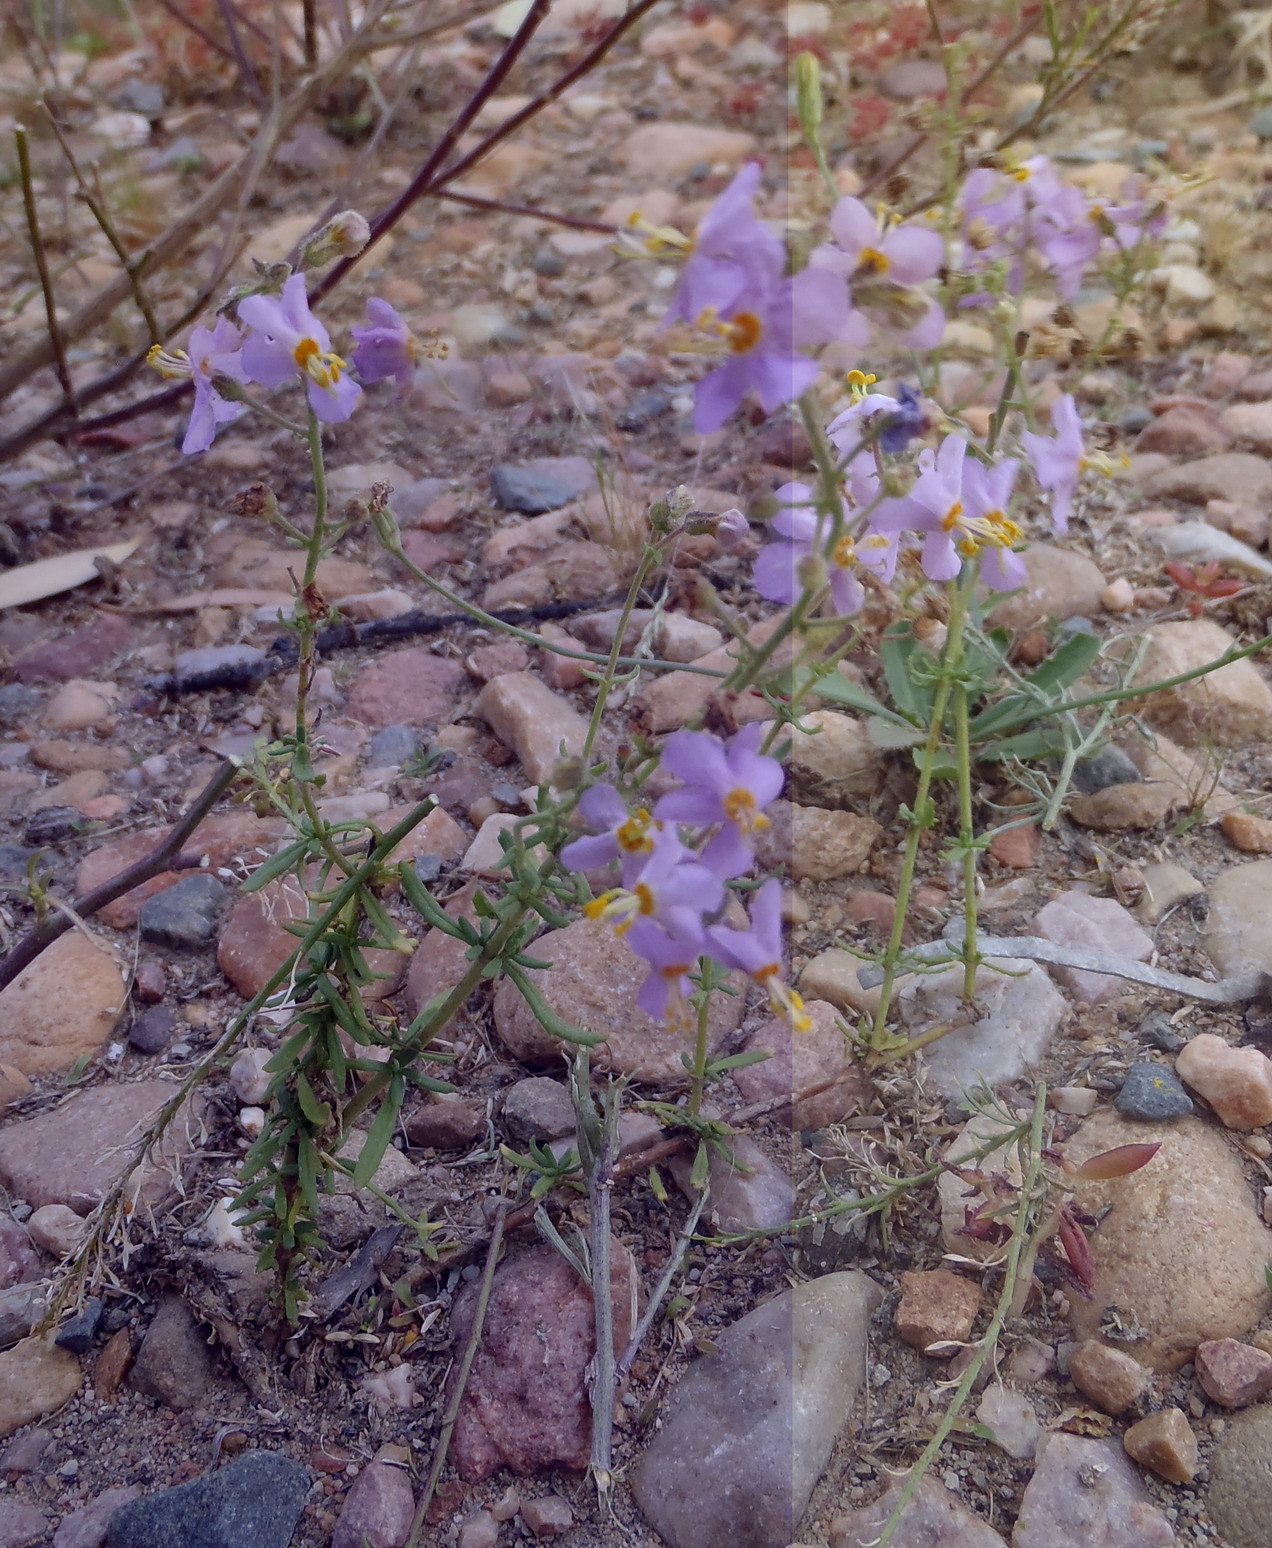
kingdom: Plantae
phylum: Tracheophyta
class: Magnoliopsida
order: Lamiales
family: Scrophulariaceae
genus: Chaenostoma
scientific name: Chaenostoma caeruleum
